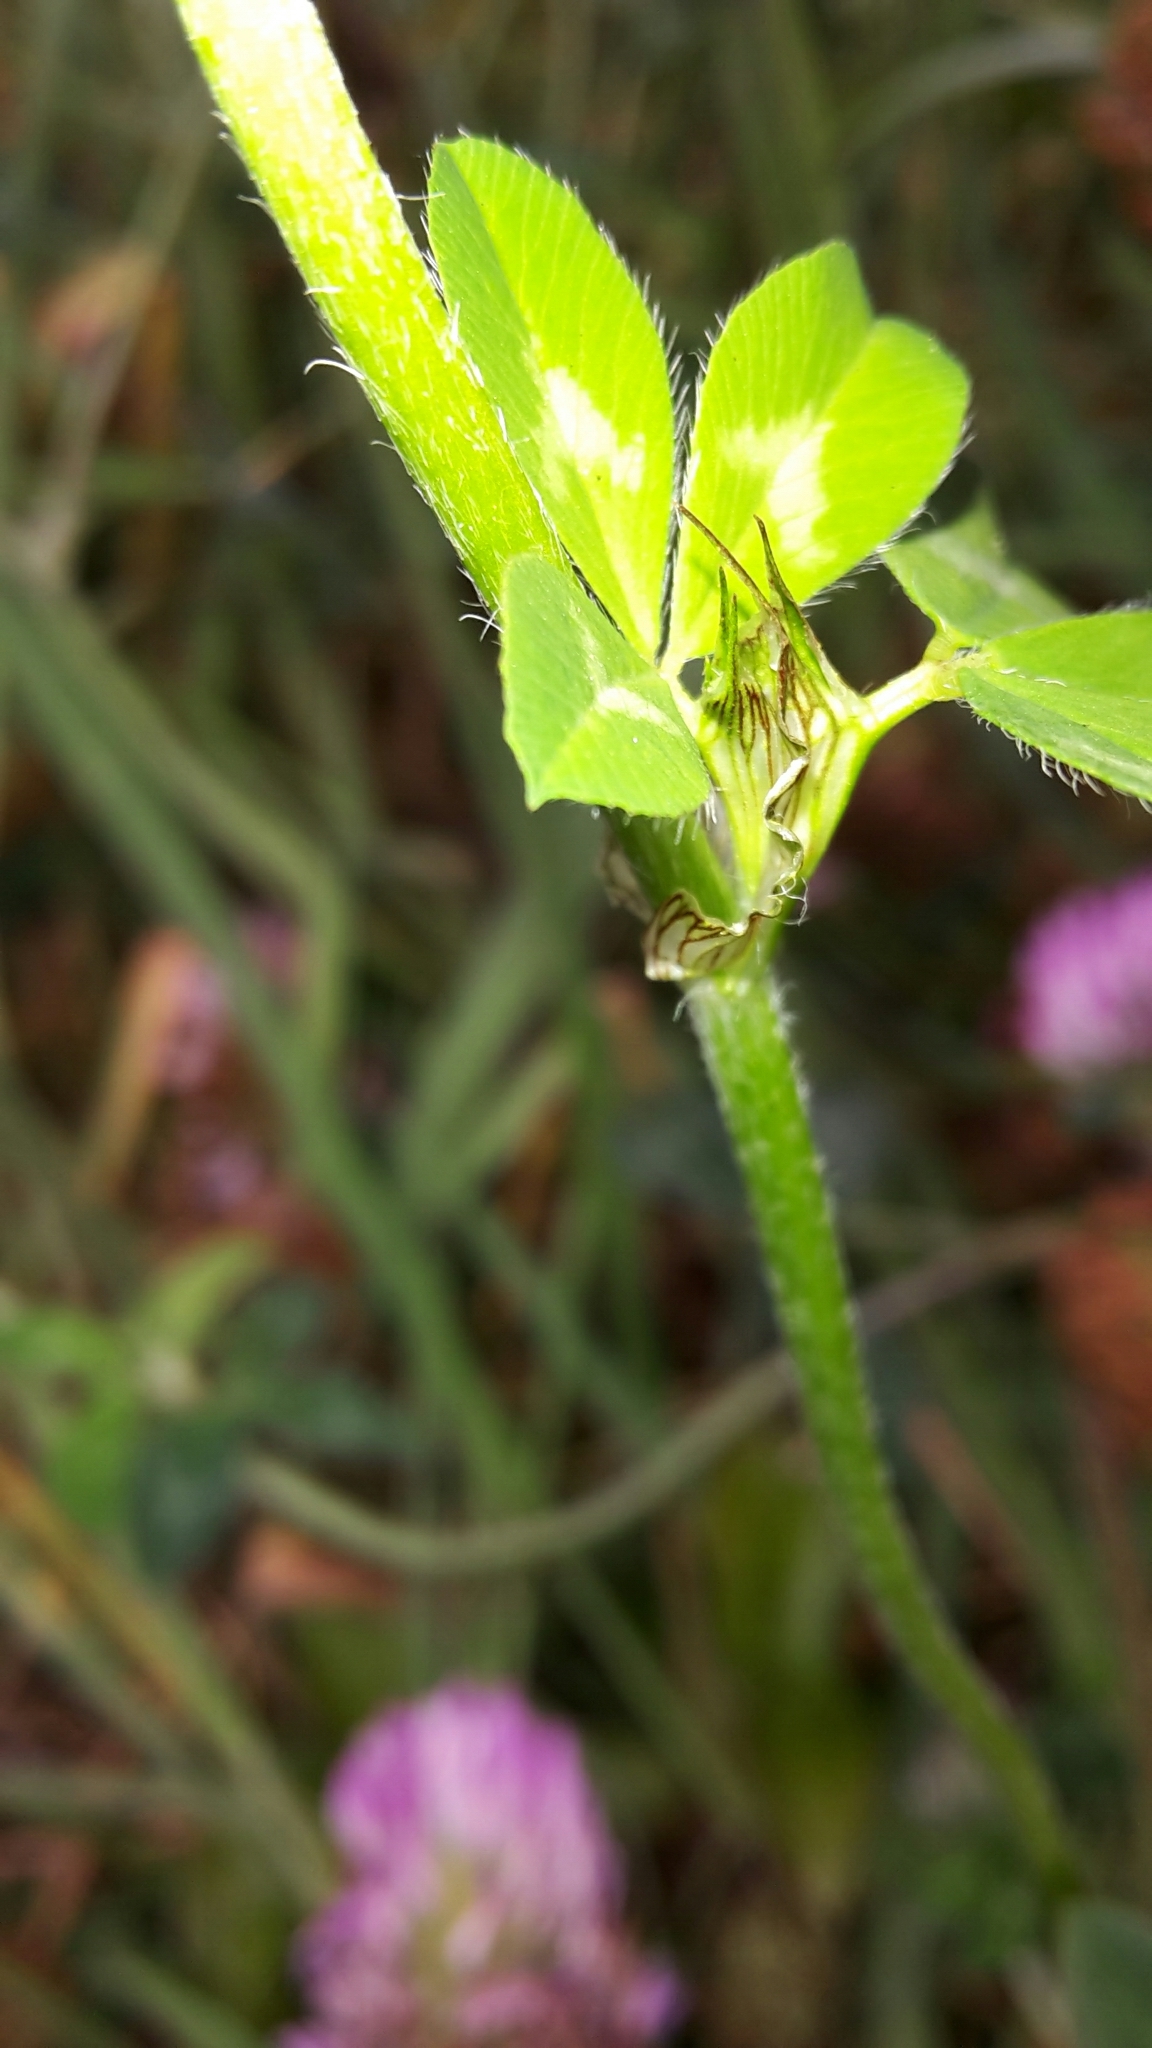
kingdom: Plantae
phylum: Tracheophyta
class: Magnoliopsida
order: Fabales
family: Fabaceae
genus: Trifolium
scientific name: Trifolium pratense
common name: Red clover
